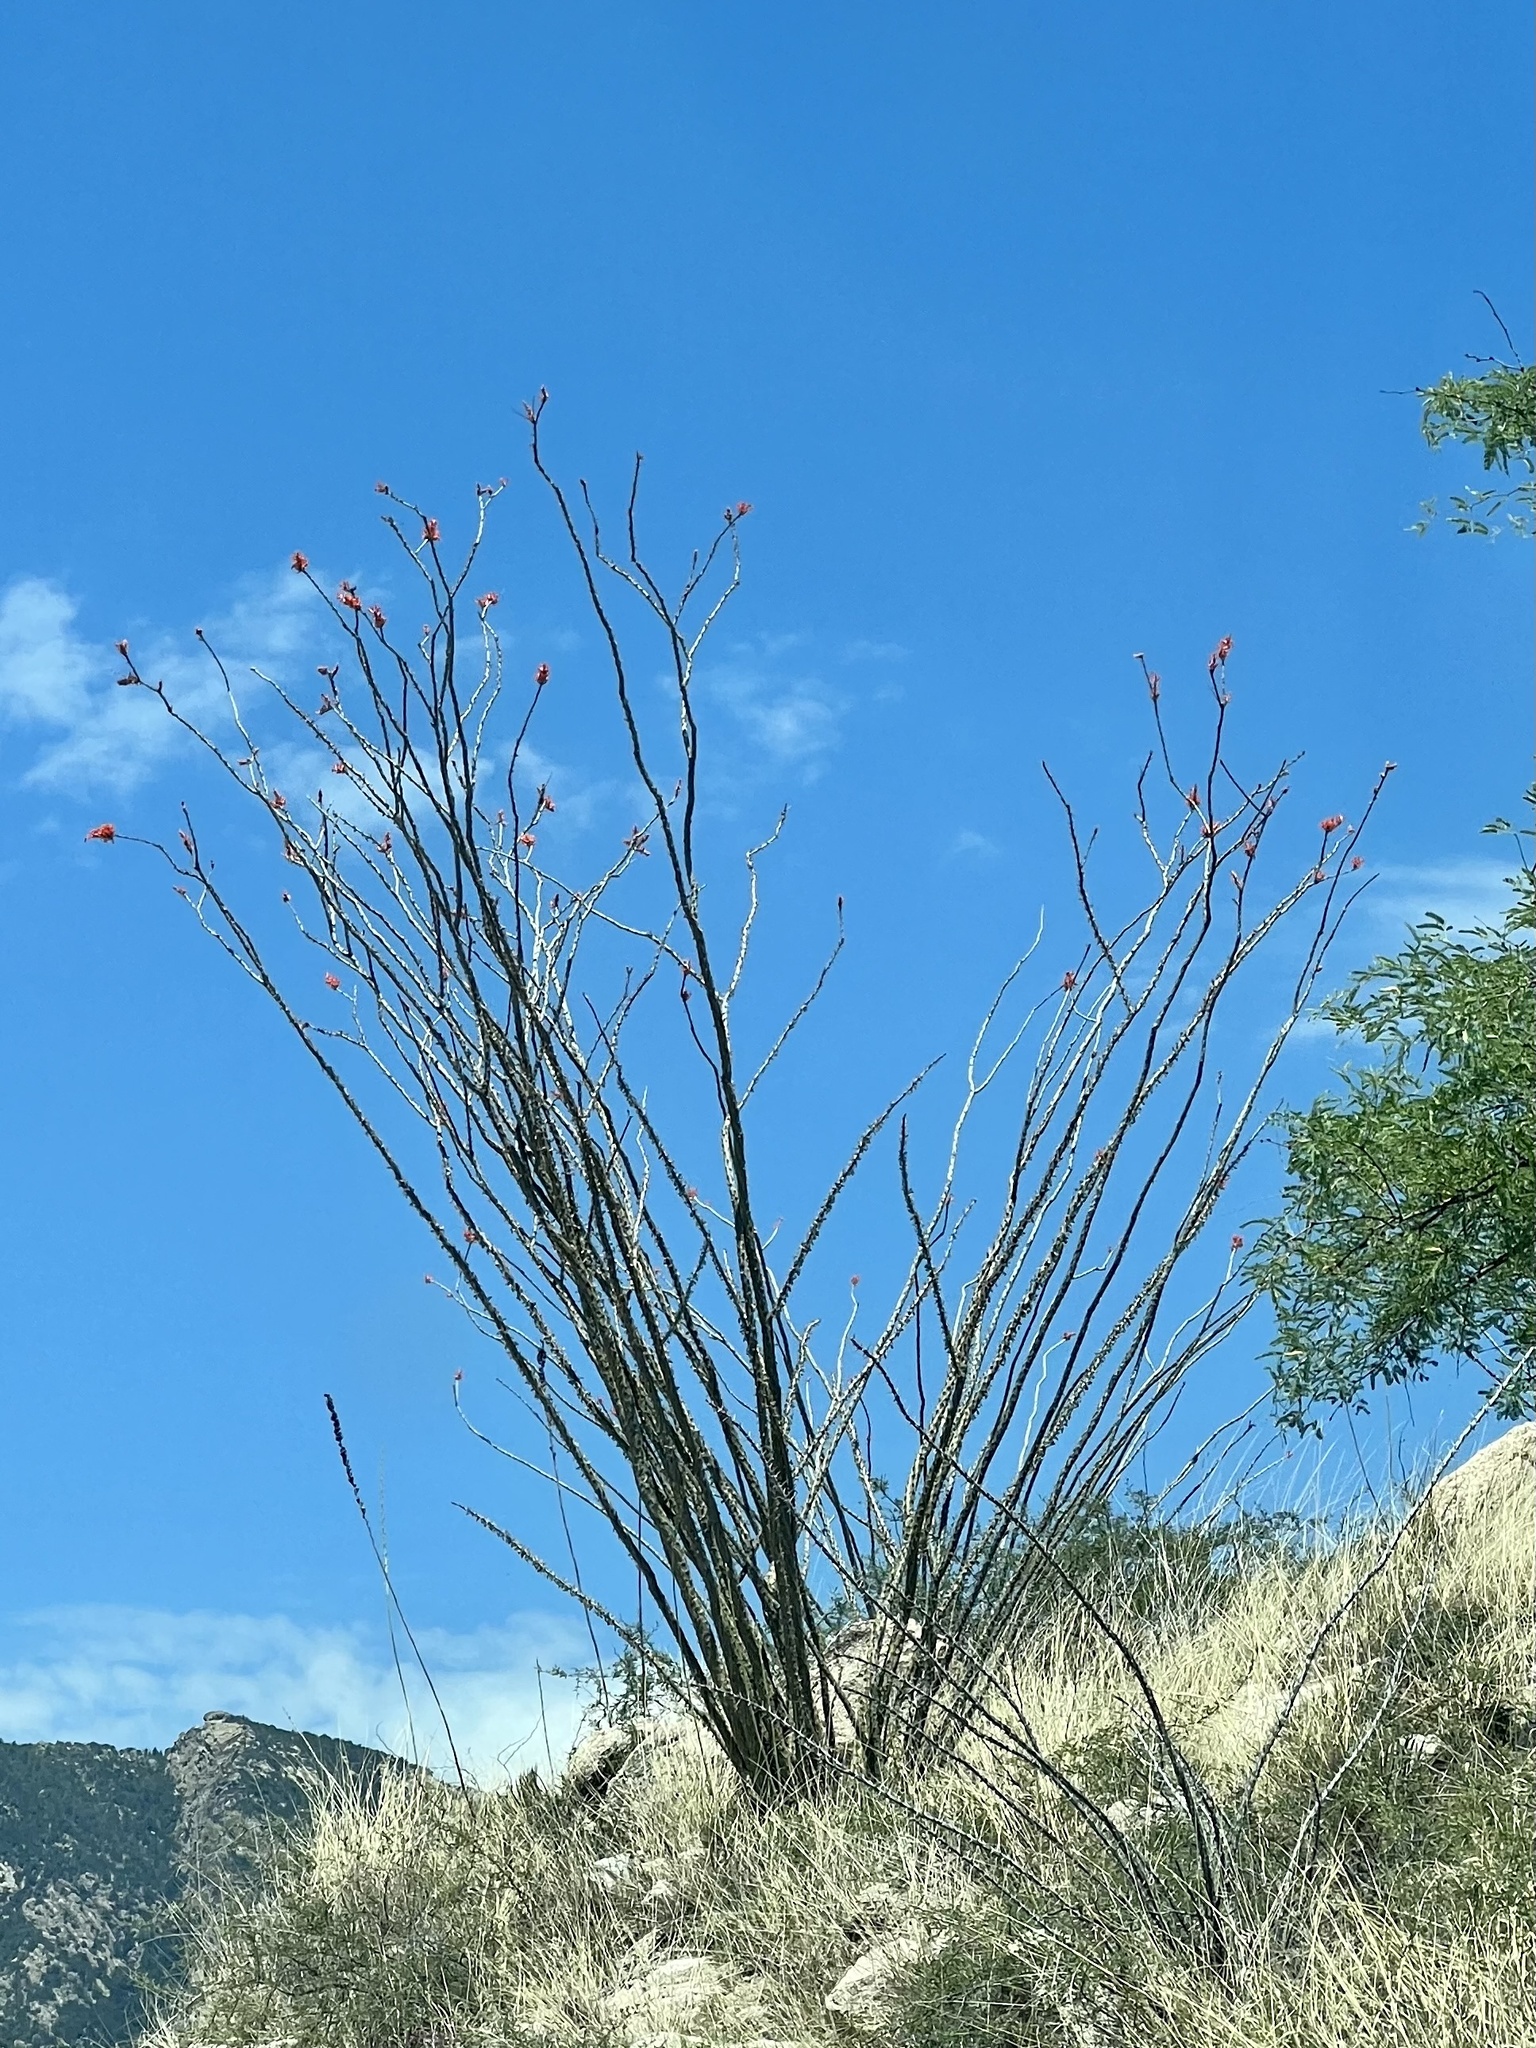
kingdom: Plantae
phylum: Tracheophyta
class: Magnoliopsida
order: Ericales
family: Fouquieriaceae
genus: Fouquieria
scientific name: Fouquieria splendens
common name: Vine-cactus
